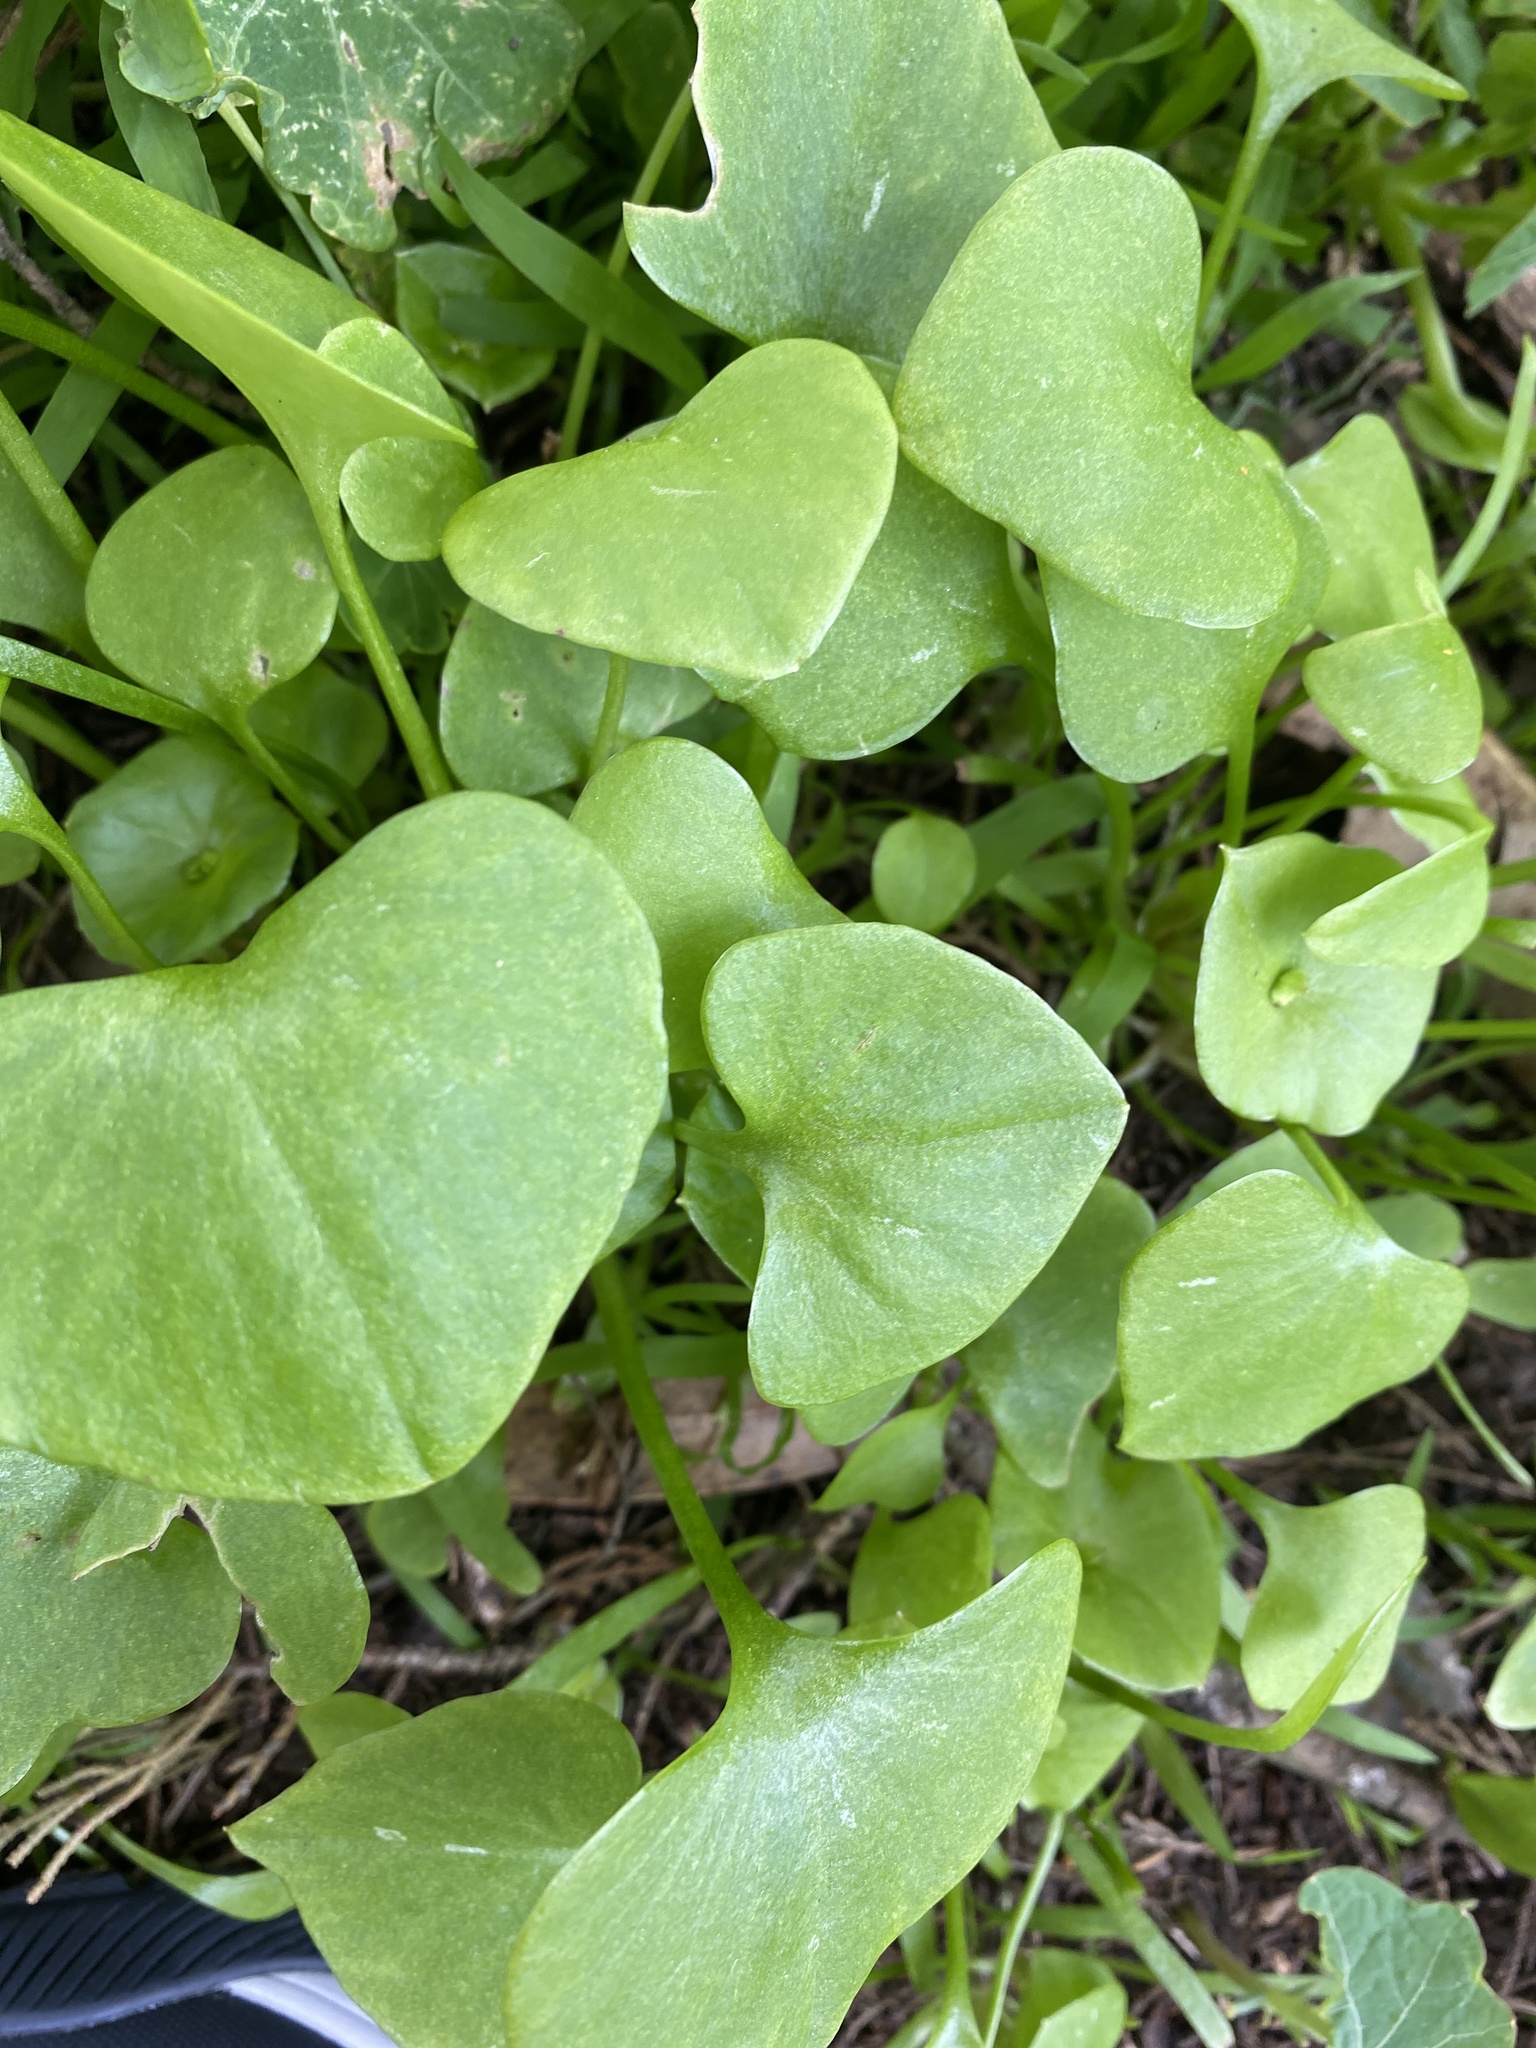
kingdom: Plantae
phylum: Tracheophyta
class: Magnoliopsida
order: Caryophyllales
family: Montiaceae
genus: Claytonia
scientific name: Claytonia perfoliata
